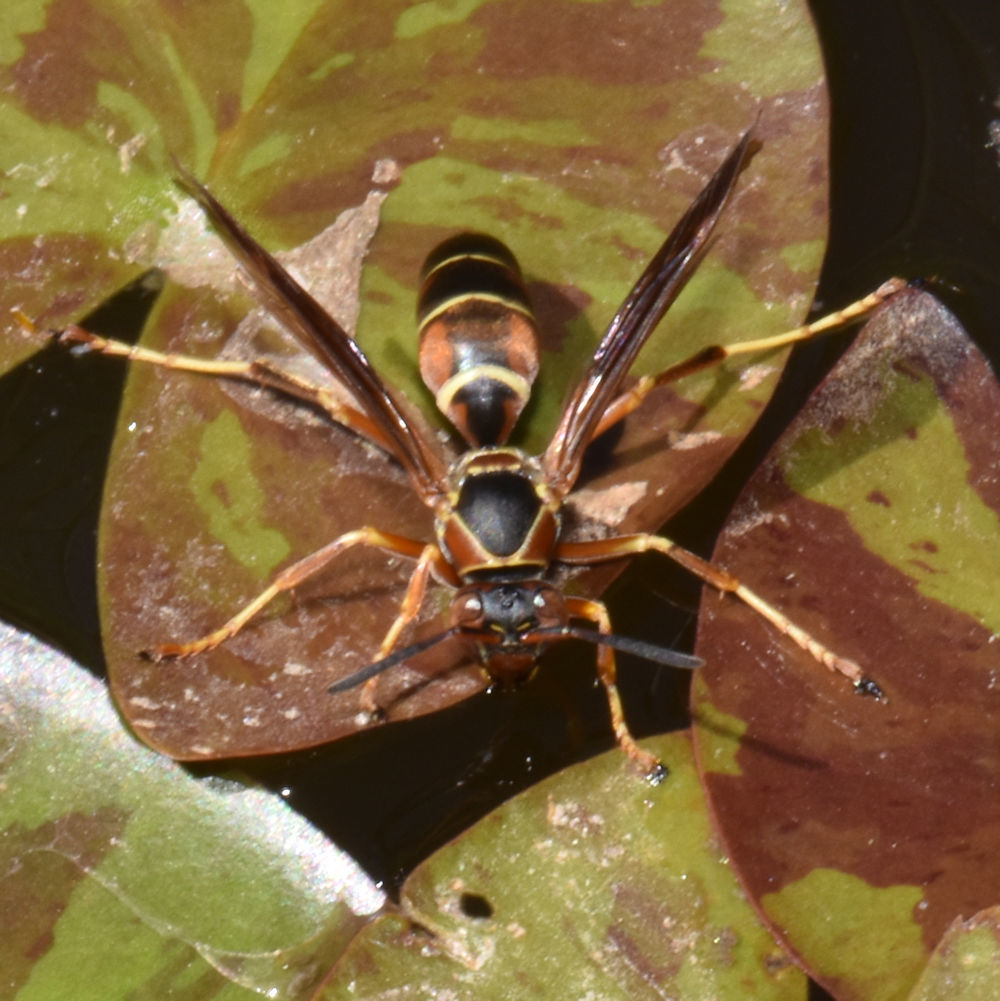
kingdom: Animalia
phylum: Arthropoda
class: Insecta
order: Hymenoptera
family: Eumenidae
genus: Polistes
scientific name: Polistes fuscatus
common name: Dark paper wasp
